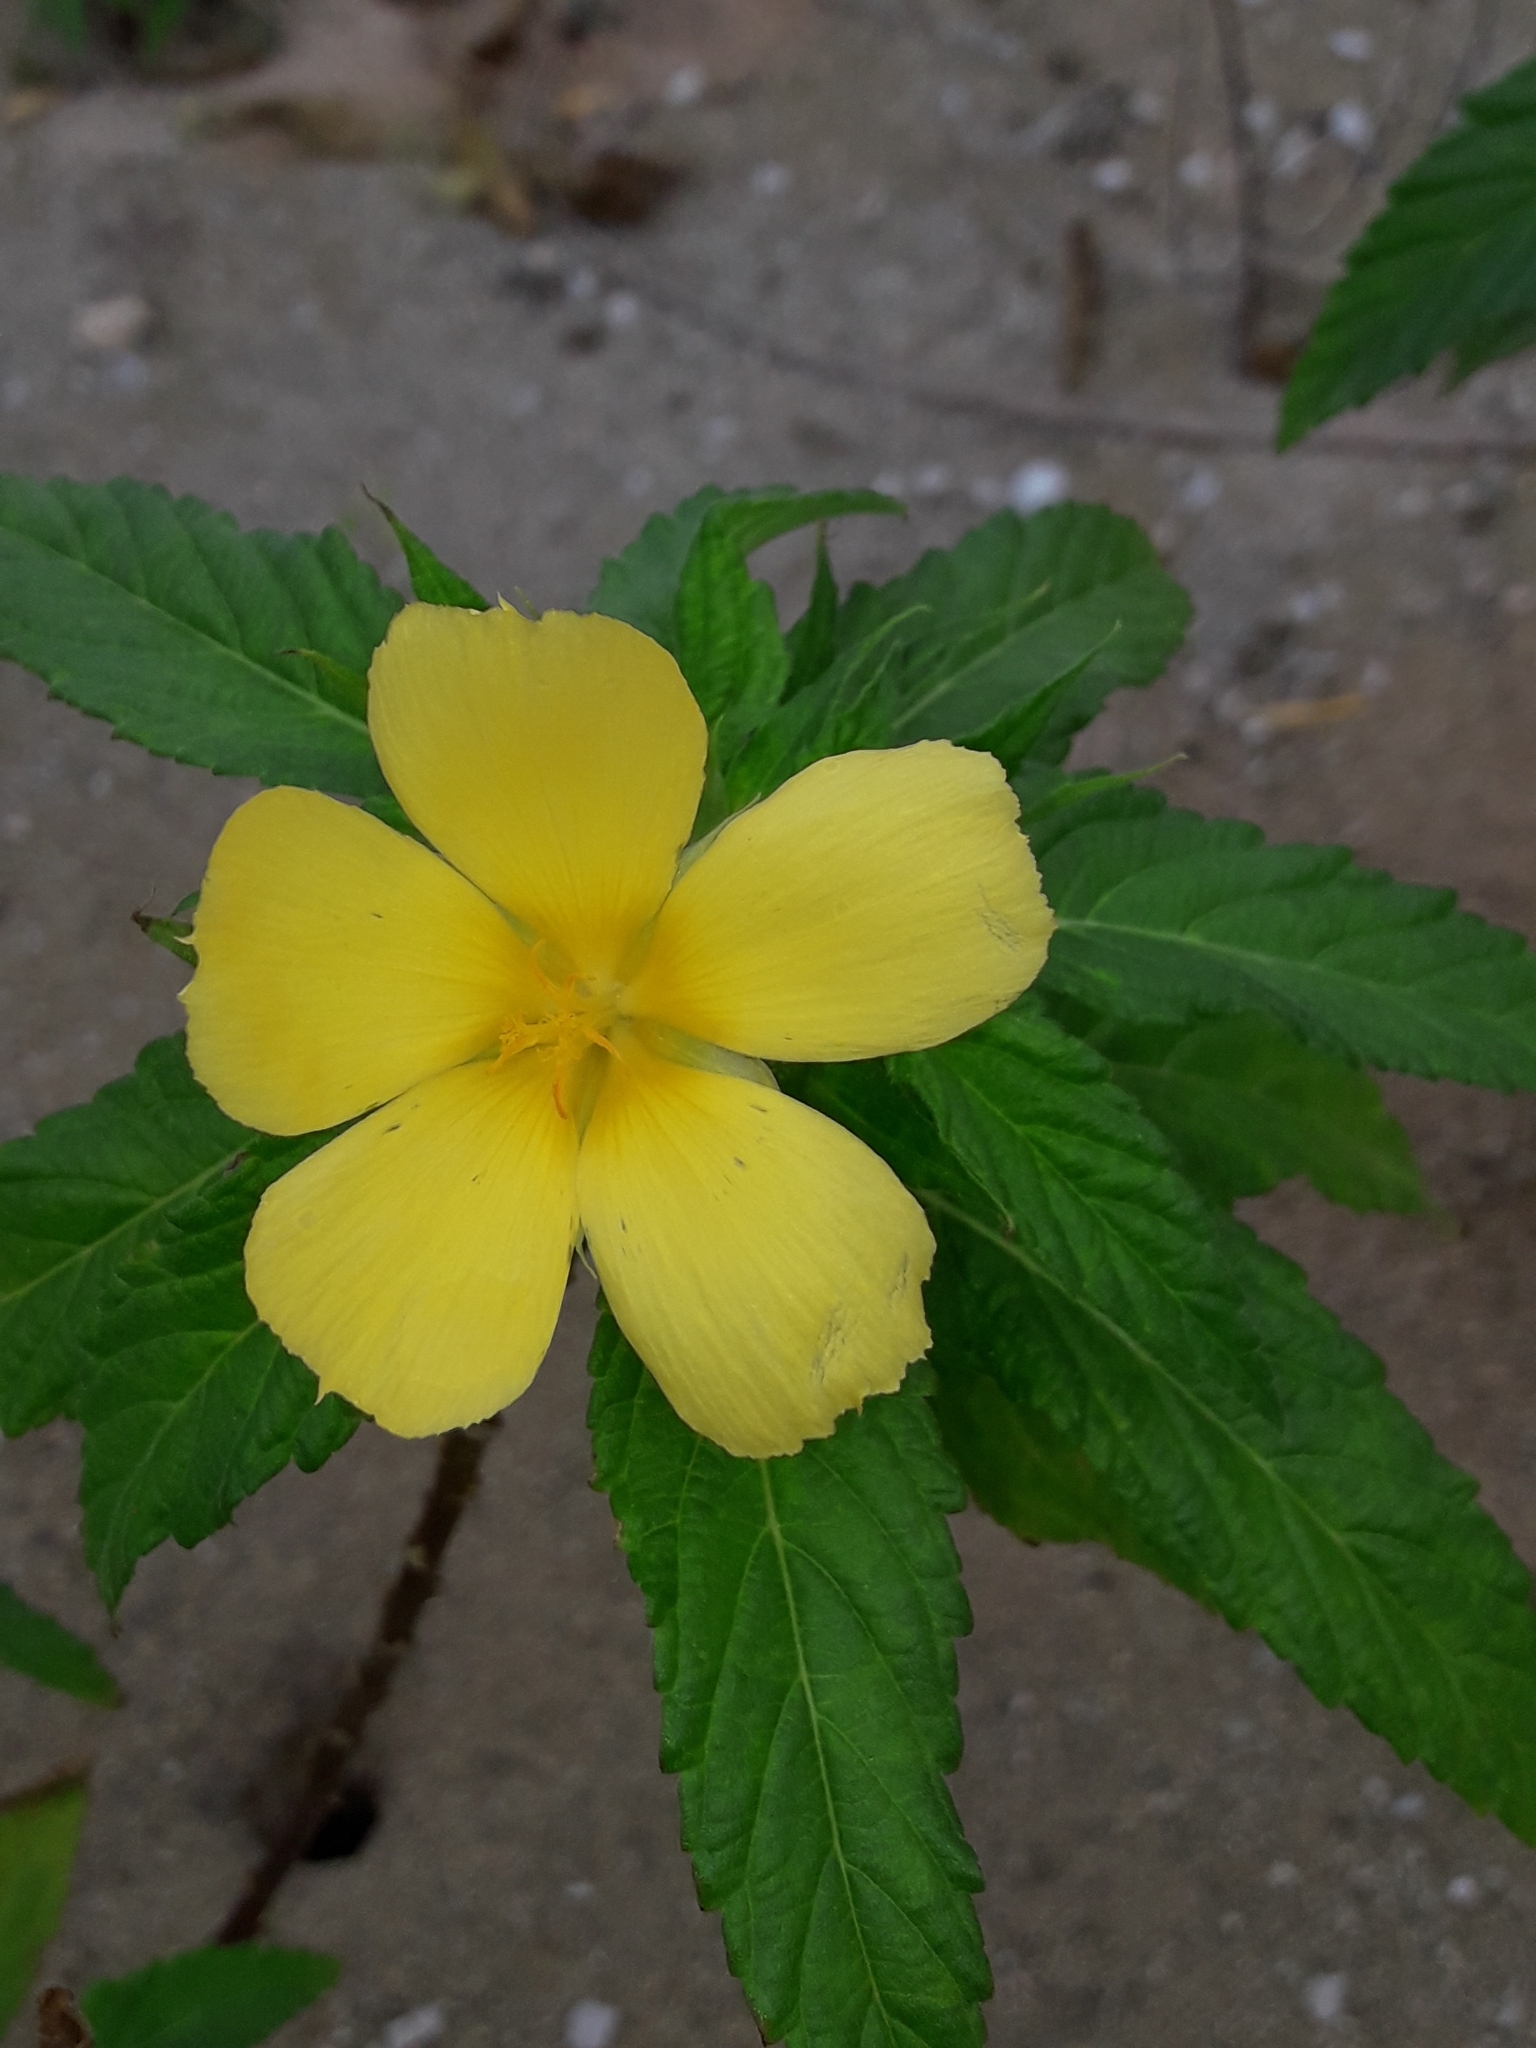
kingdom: Plantae
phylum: Tracheophyta
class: Magnoliopsida
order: Malpighiales
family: Turneraceae
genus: Turnera
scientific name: Turnera ulmifolia
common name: Ramgoat dashalong
